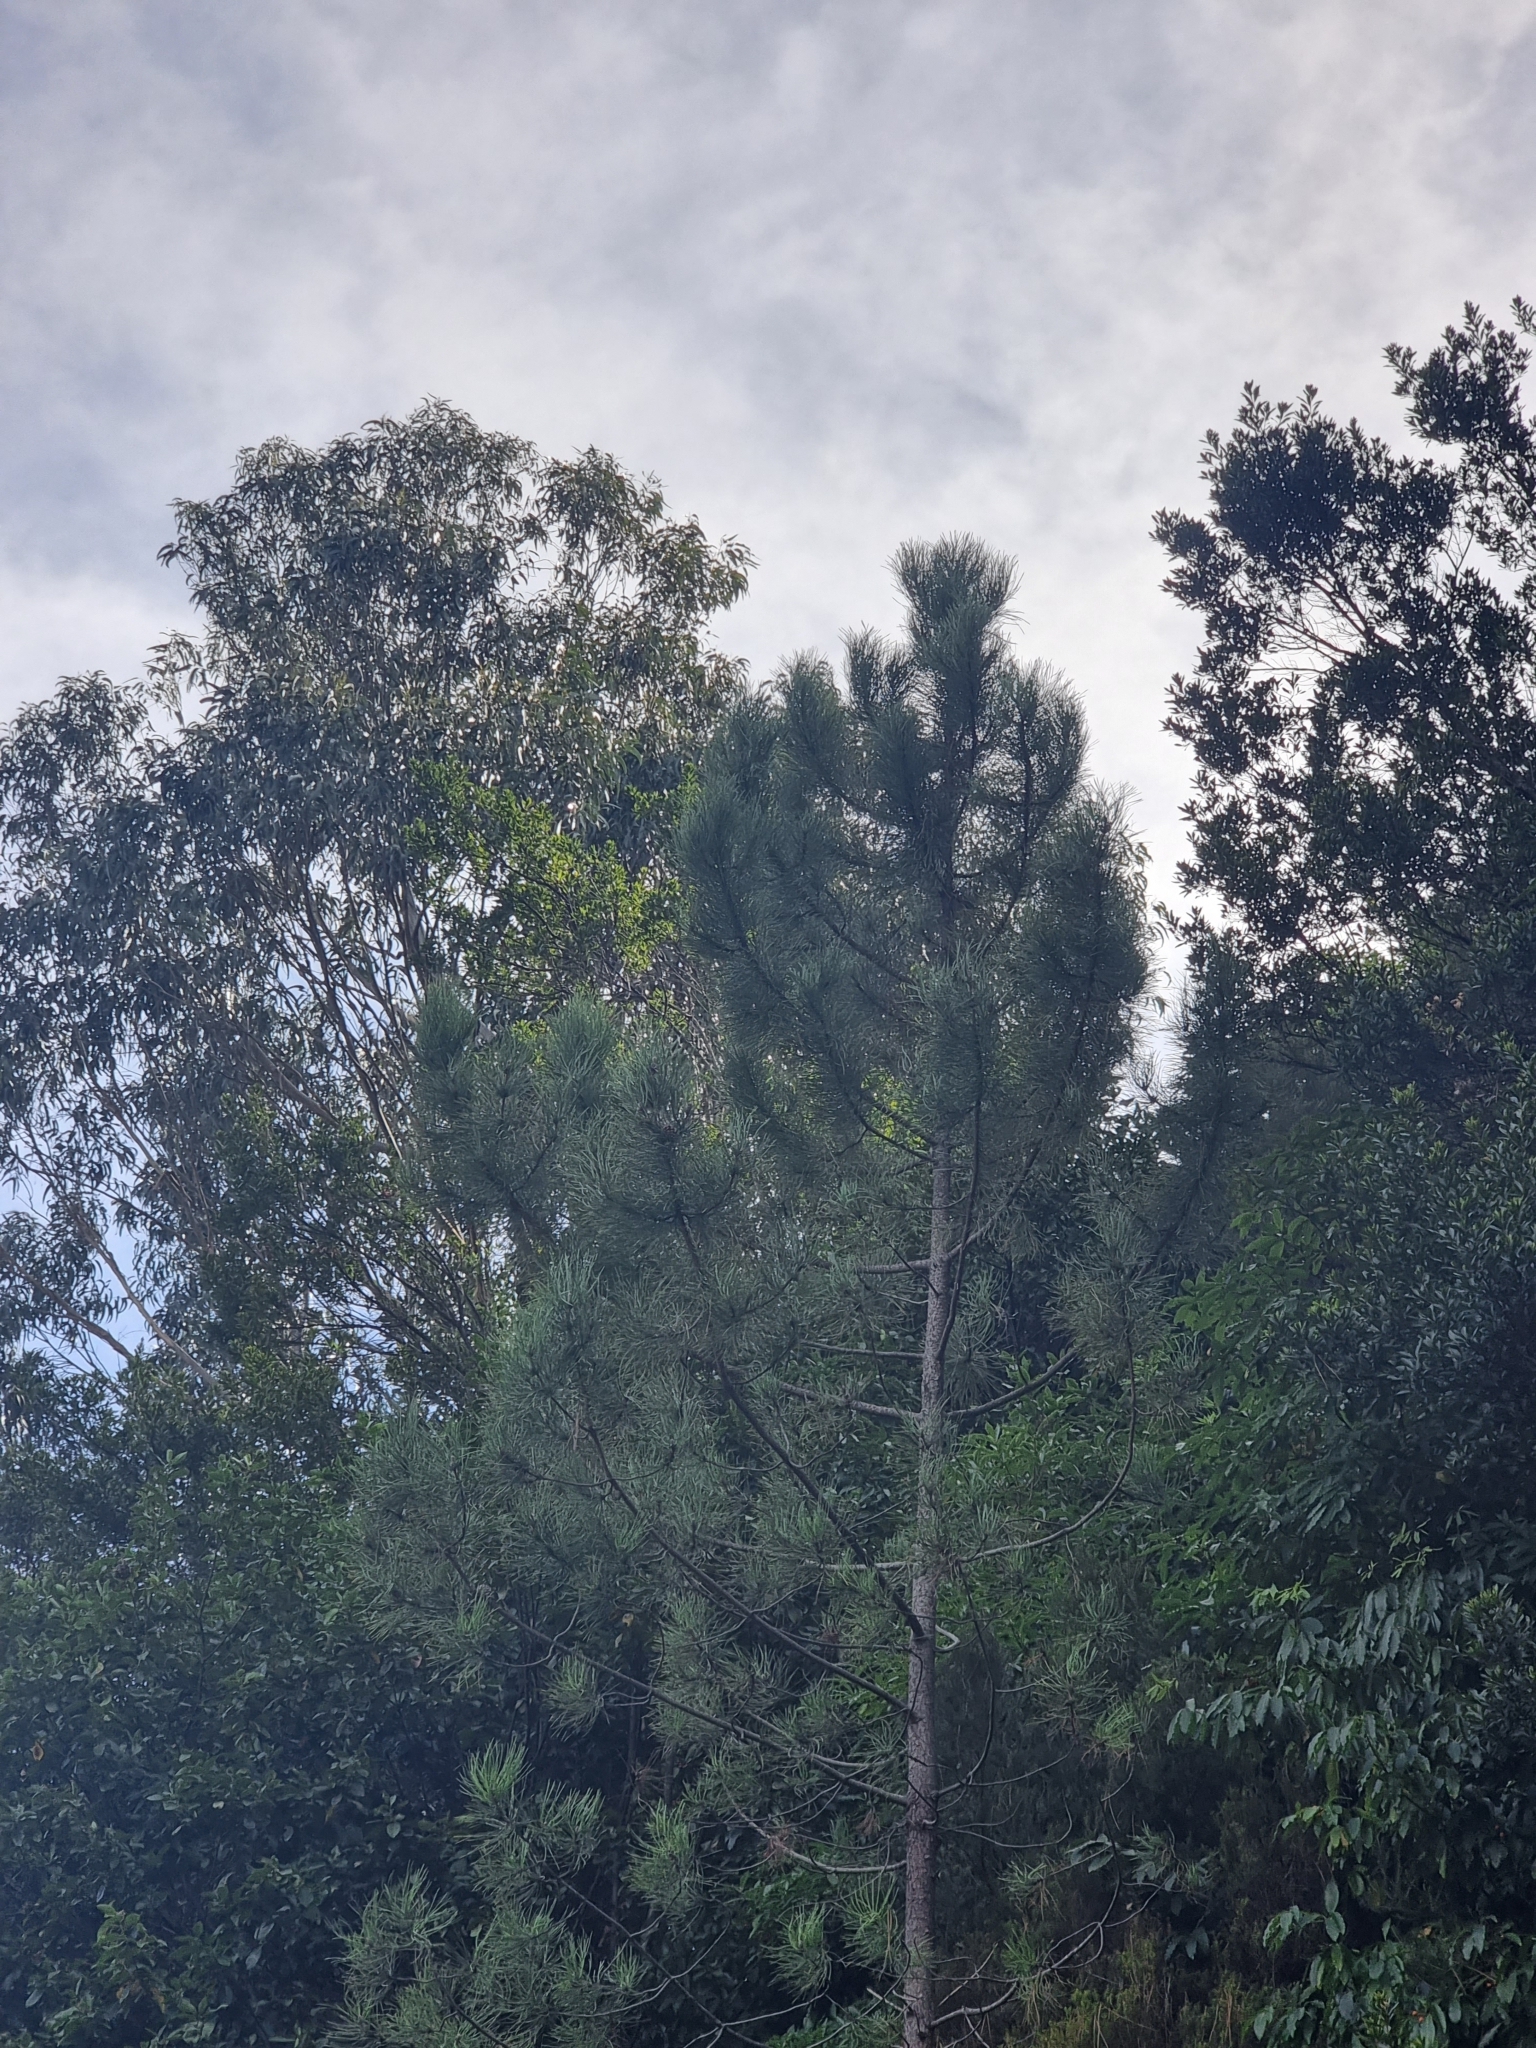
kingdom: Plantae
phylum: Tracheophyta
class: Pinopsida
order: Pinales
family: Pinaceae
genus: Pinus
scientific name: Pinus pinaster
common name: Maritime pine
